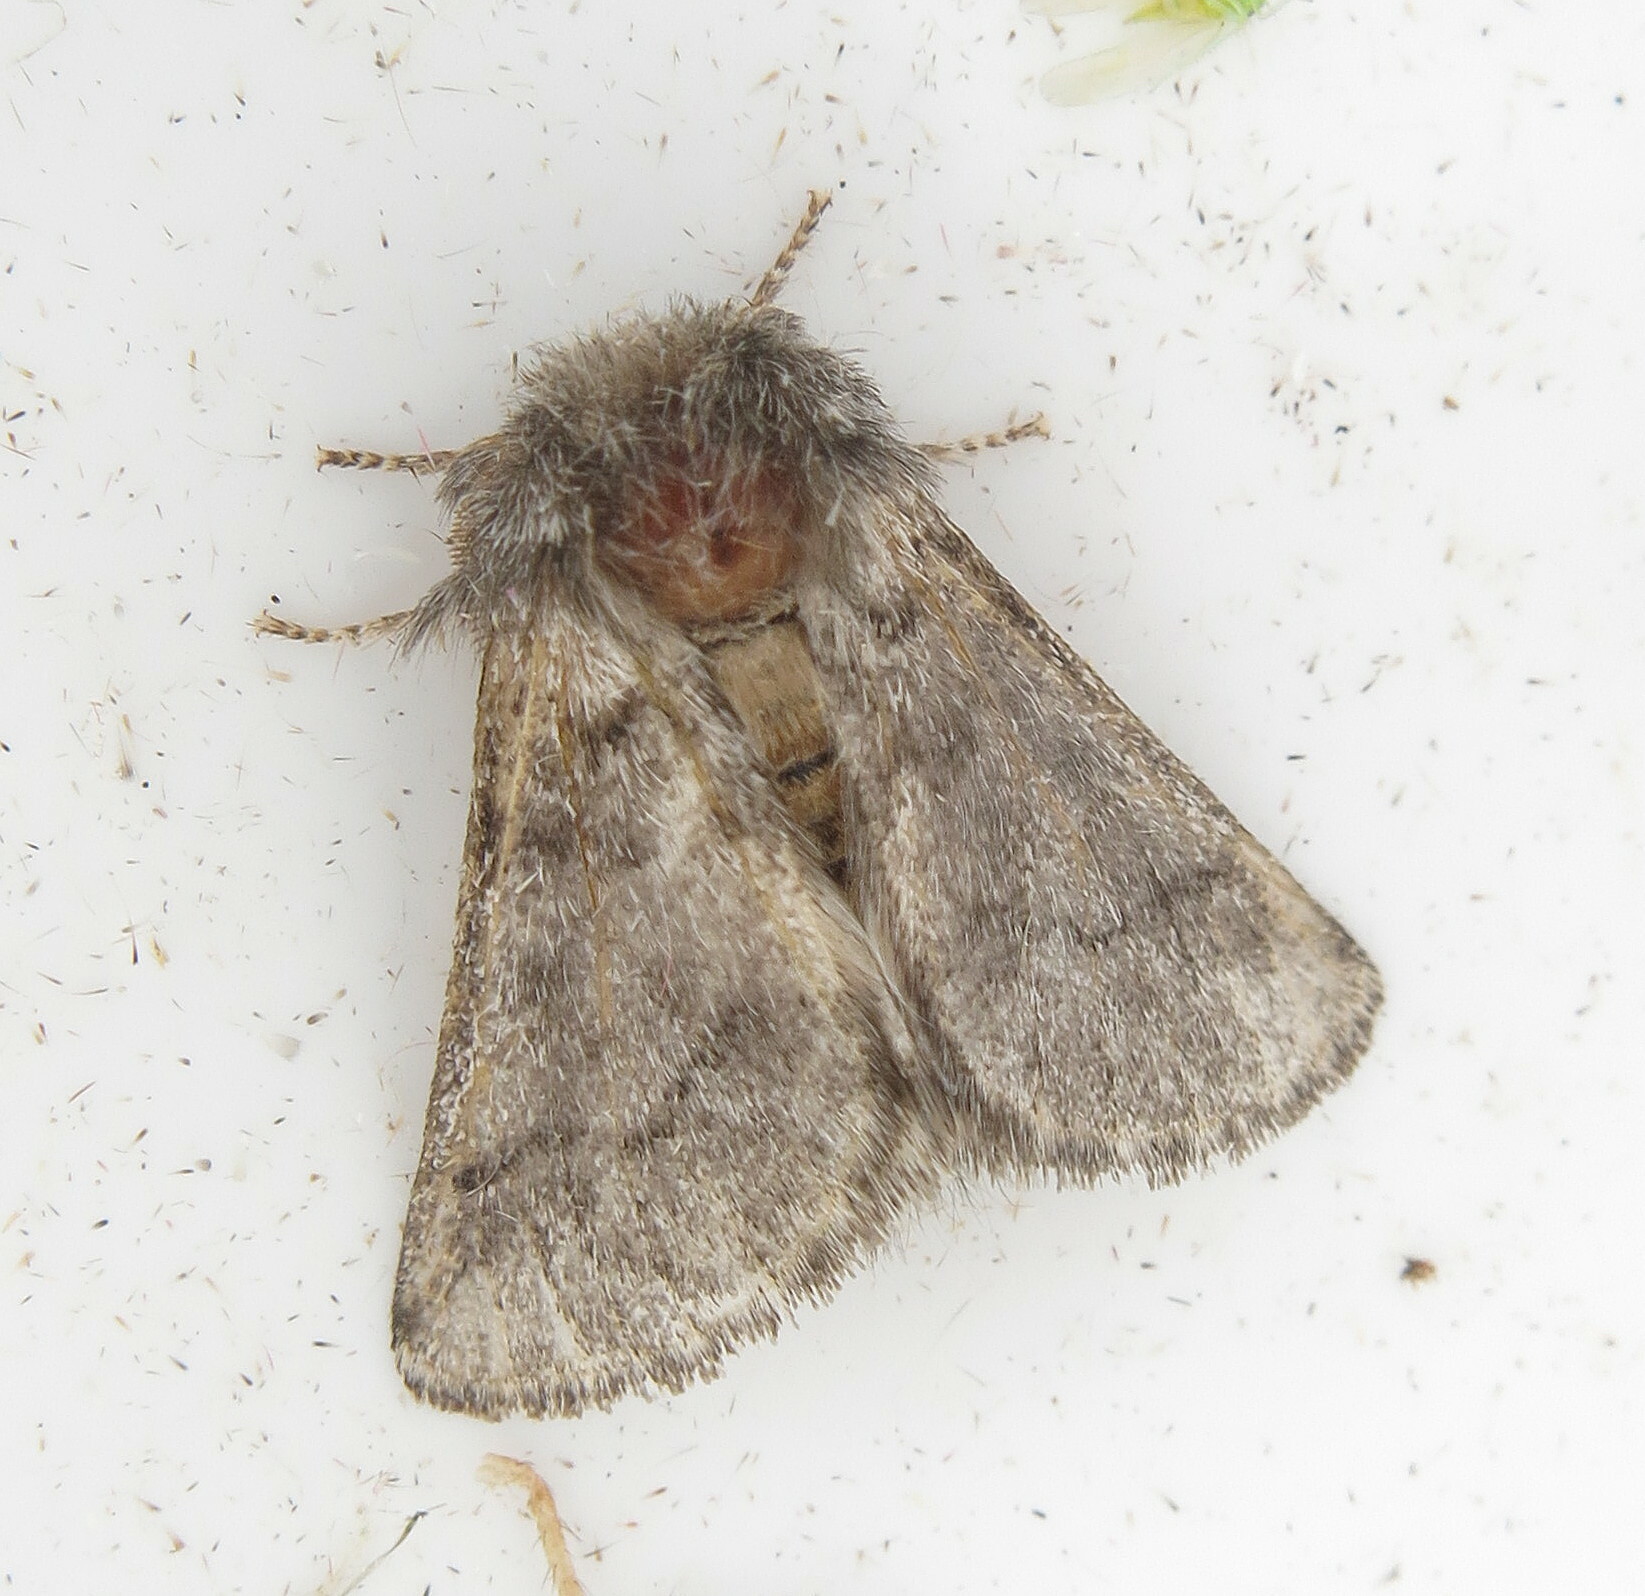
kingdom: Animalia
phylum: Arthropoda
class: Insecta
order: Lepidoptera
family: Notodontidae
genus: Thaumetopoea
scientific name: Thaumetopoea processionea
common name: Oak processionea
